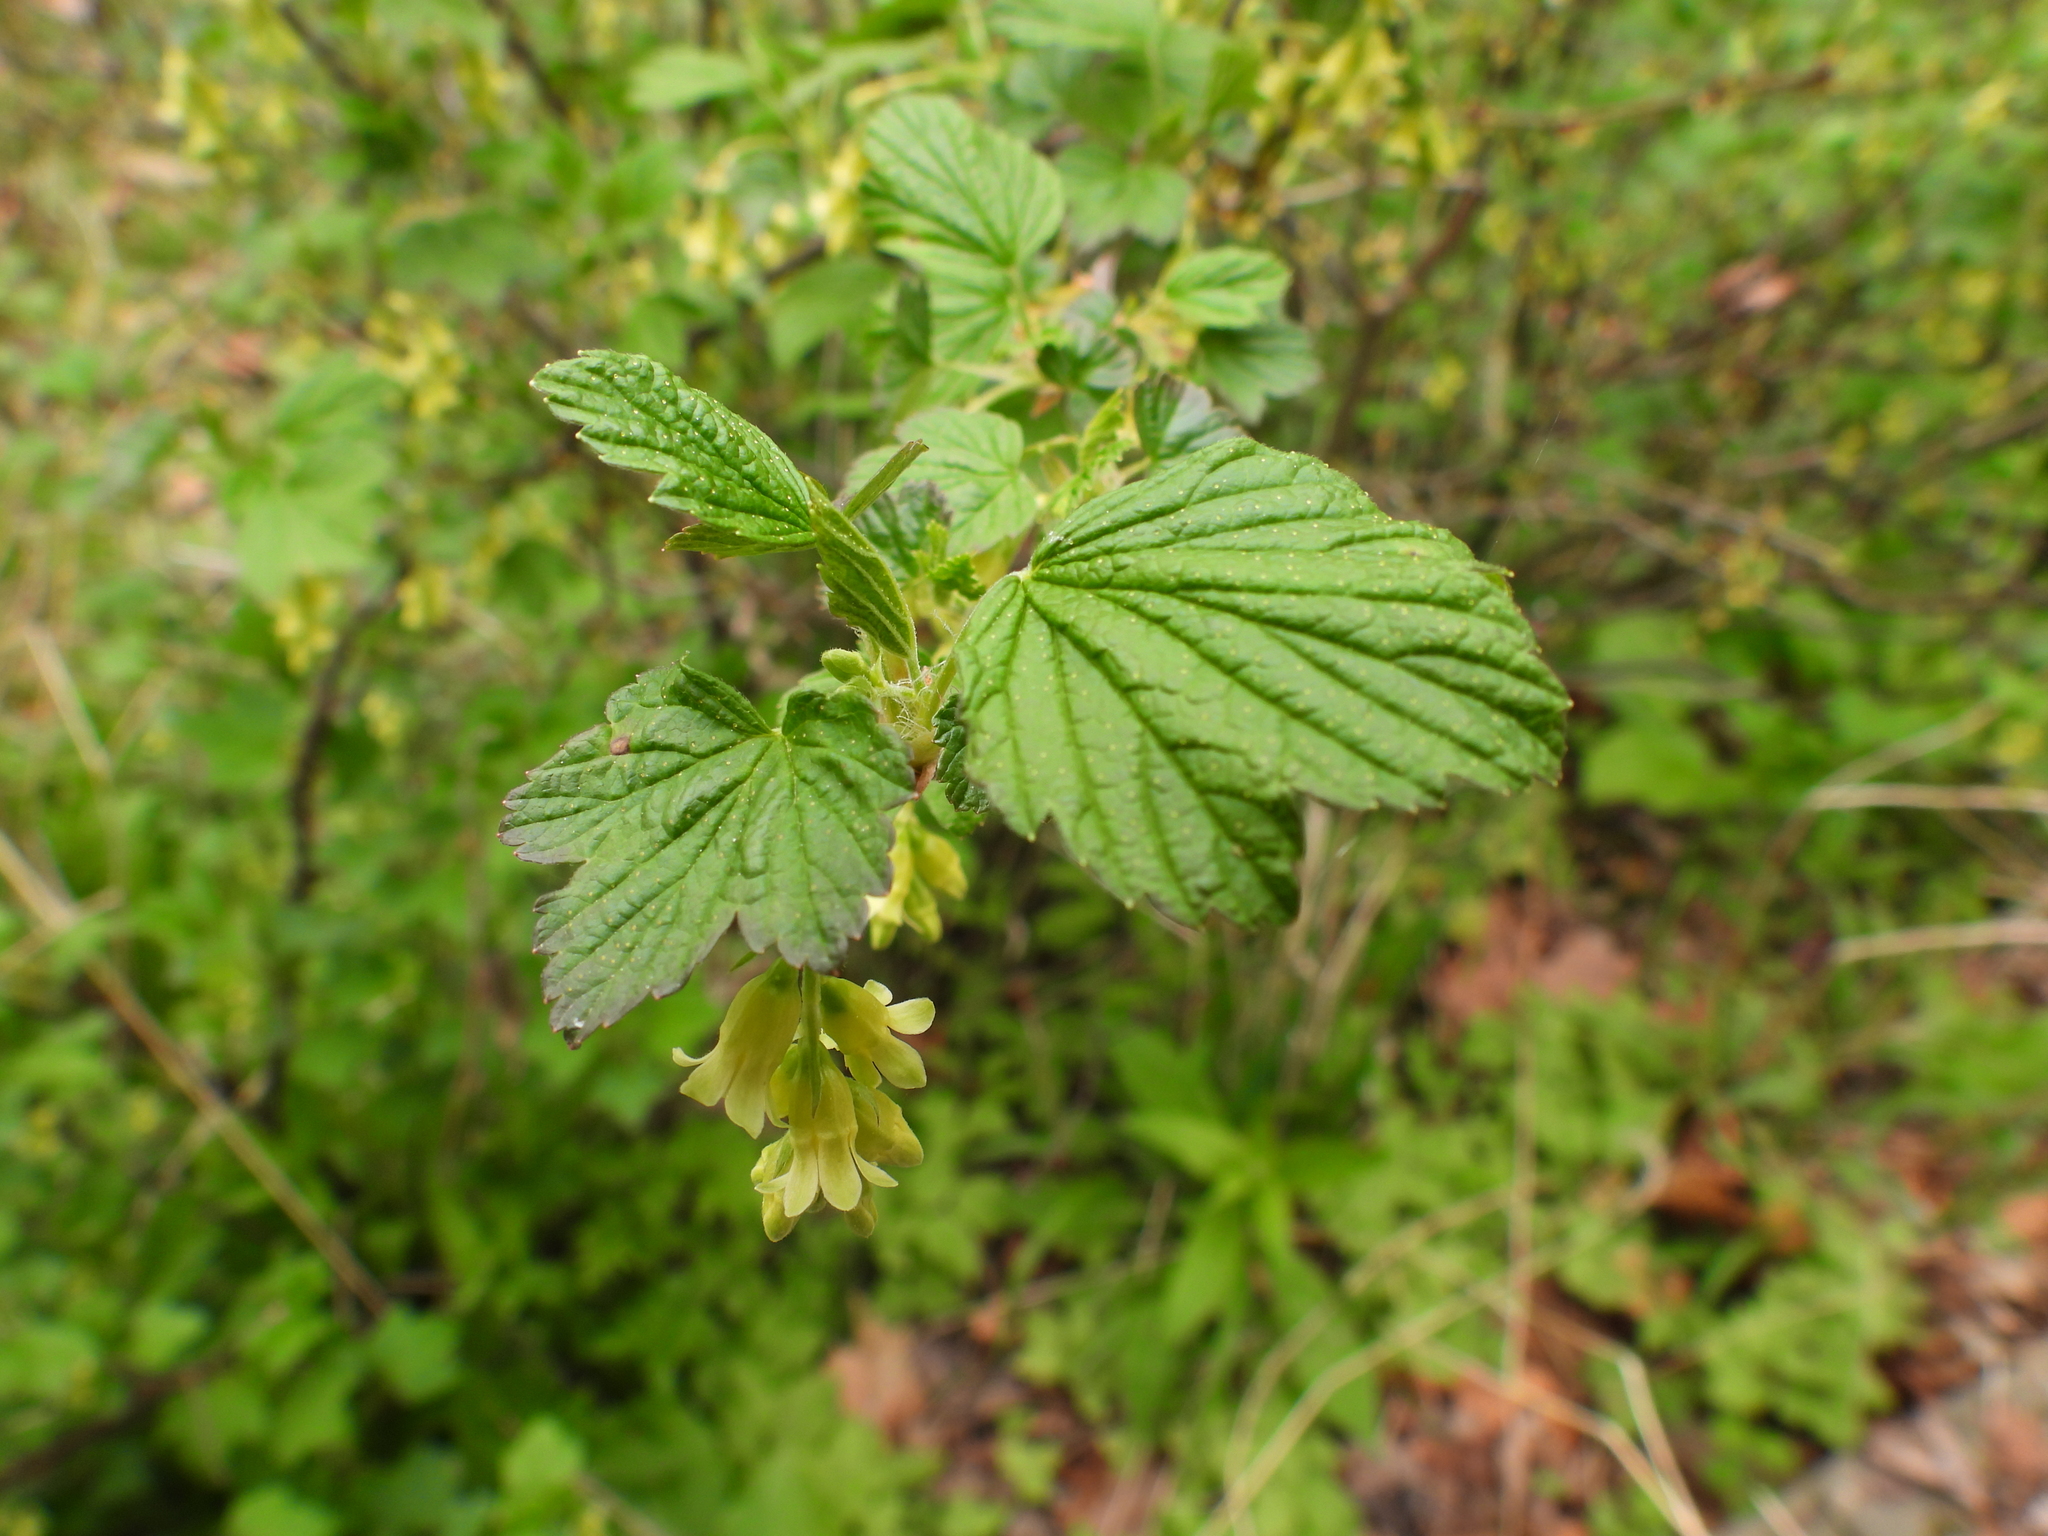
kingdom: Plantae
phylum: Tracheophyta
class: Magnoliopsida
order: Saxifragales
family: Grossulariaceae
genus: Ribes
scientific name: Ribes americanum
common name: American black currant
